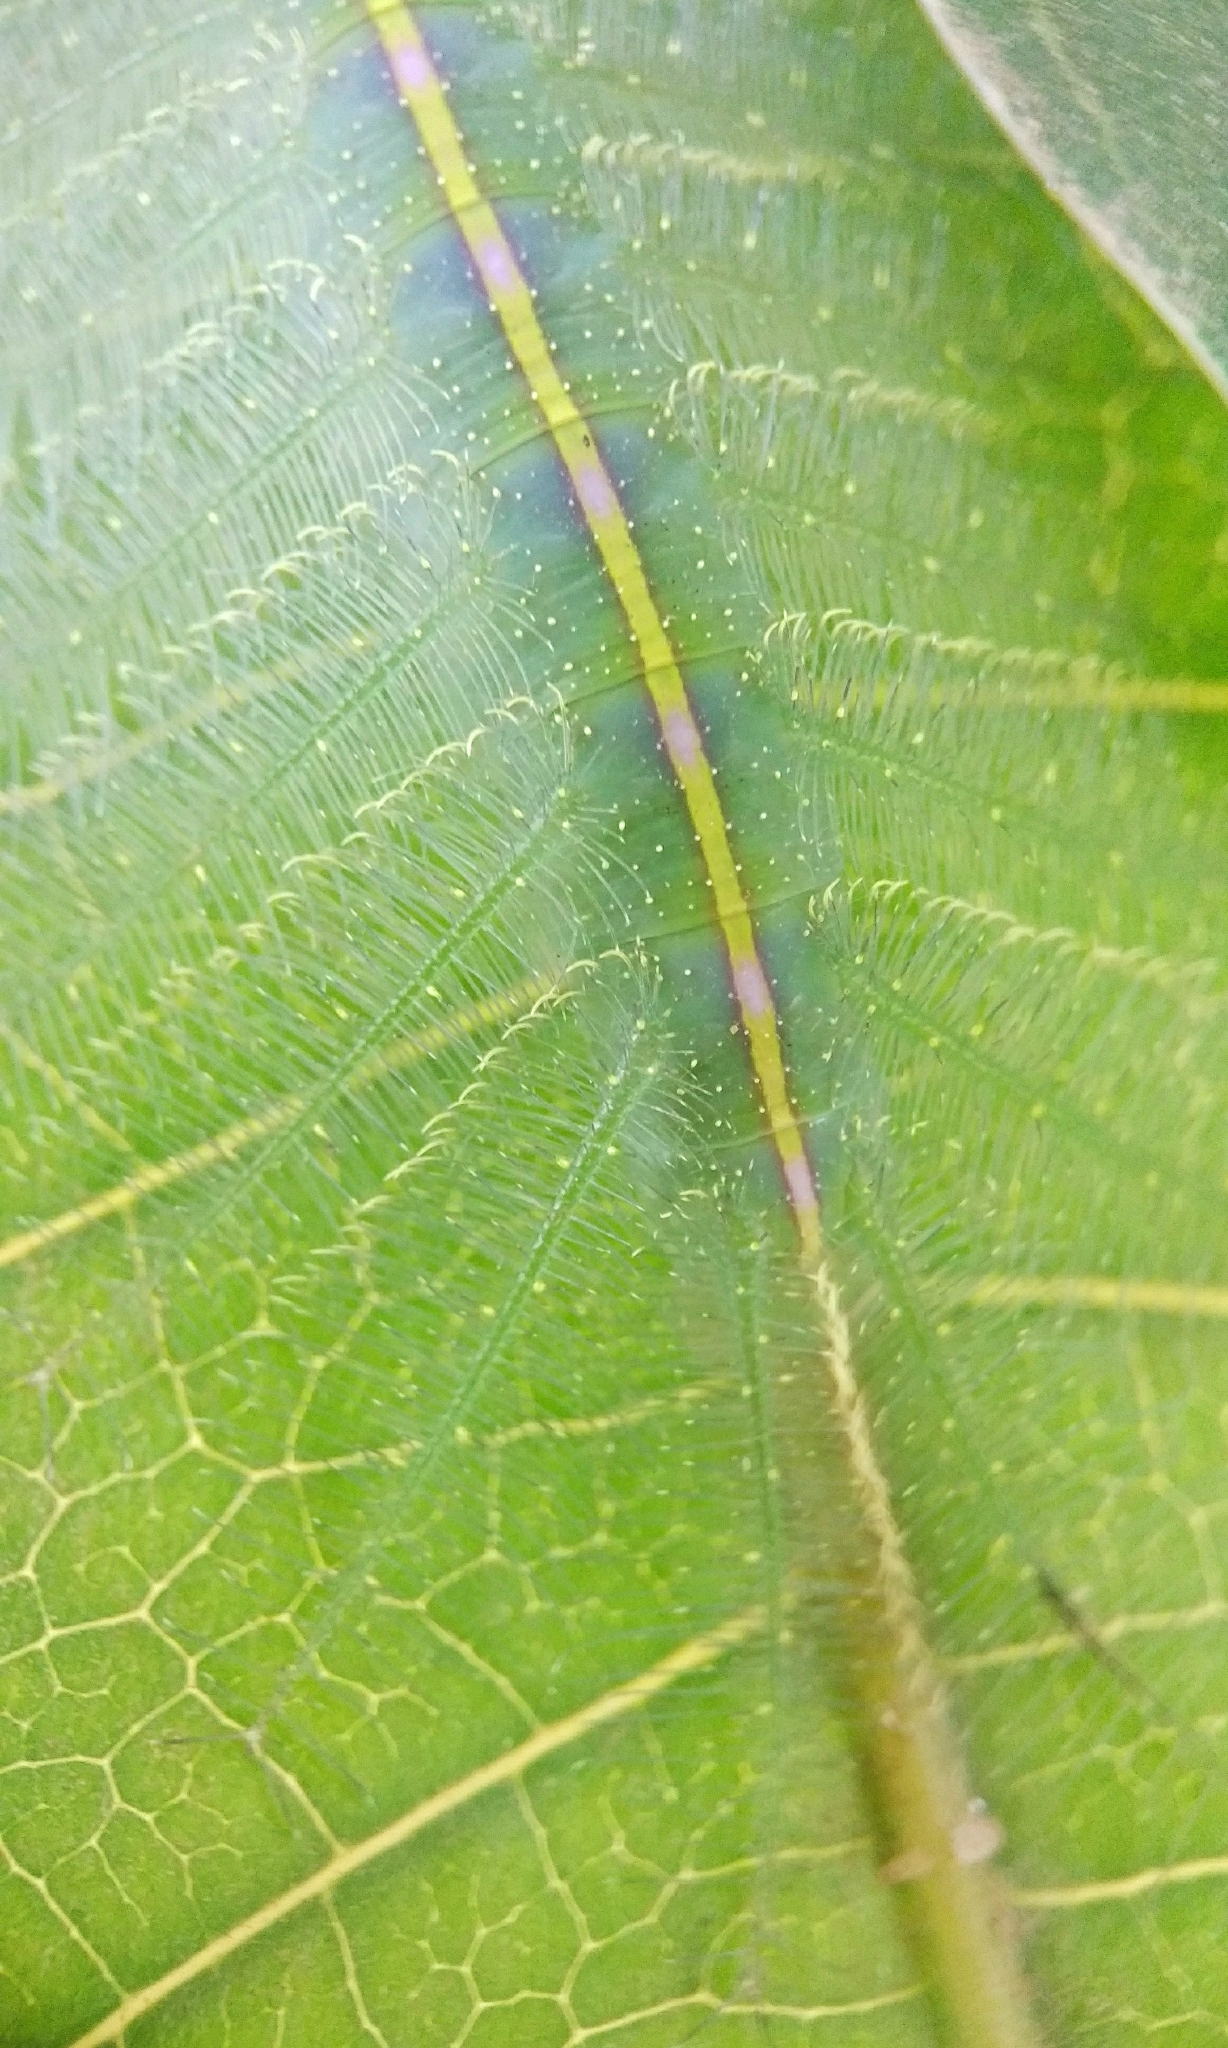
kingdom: Animalia
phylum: Arthropoda
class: Insecta
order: Lepidoptera
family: Nymphalidae
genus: Euthalia
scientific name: Euthalia aconthea
